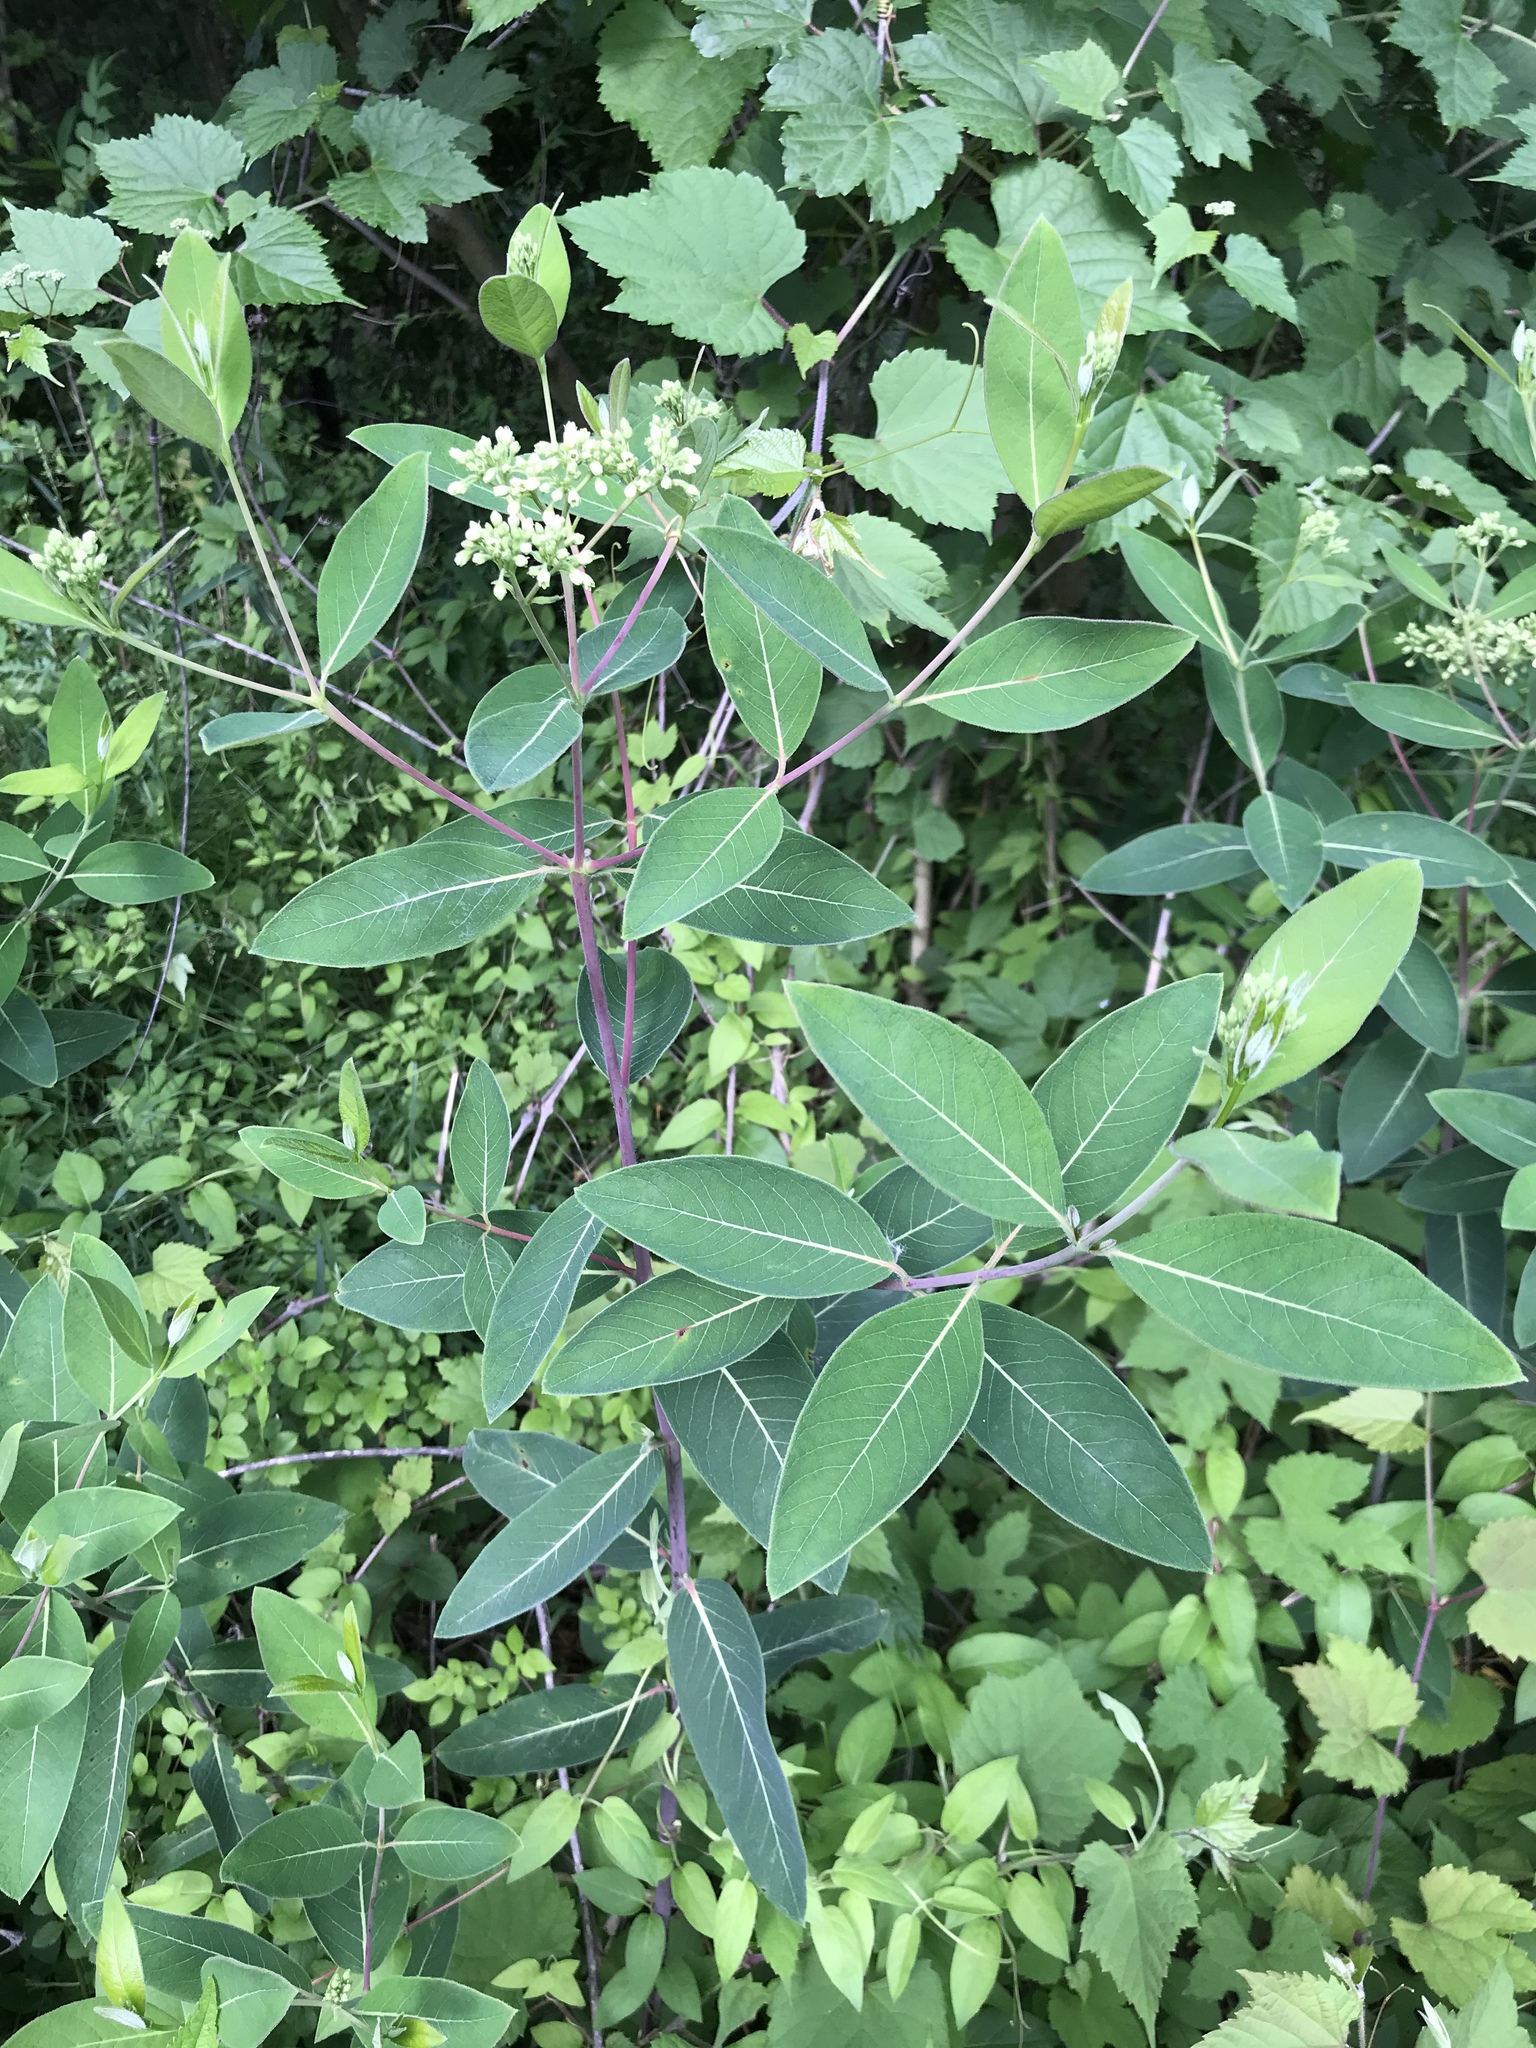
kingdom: Plantae
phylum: Tracheophyta
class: Magnoliopsida
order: Gentianales
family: Apocynaceae
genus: Apocynum
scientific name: Apocynum cannabinum
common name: Hemp dogbane
